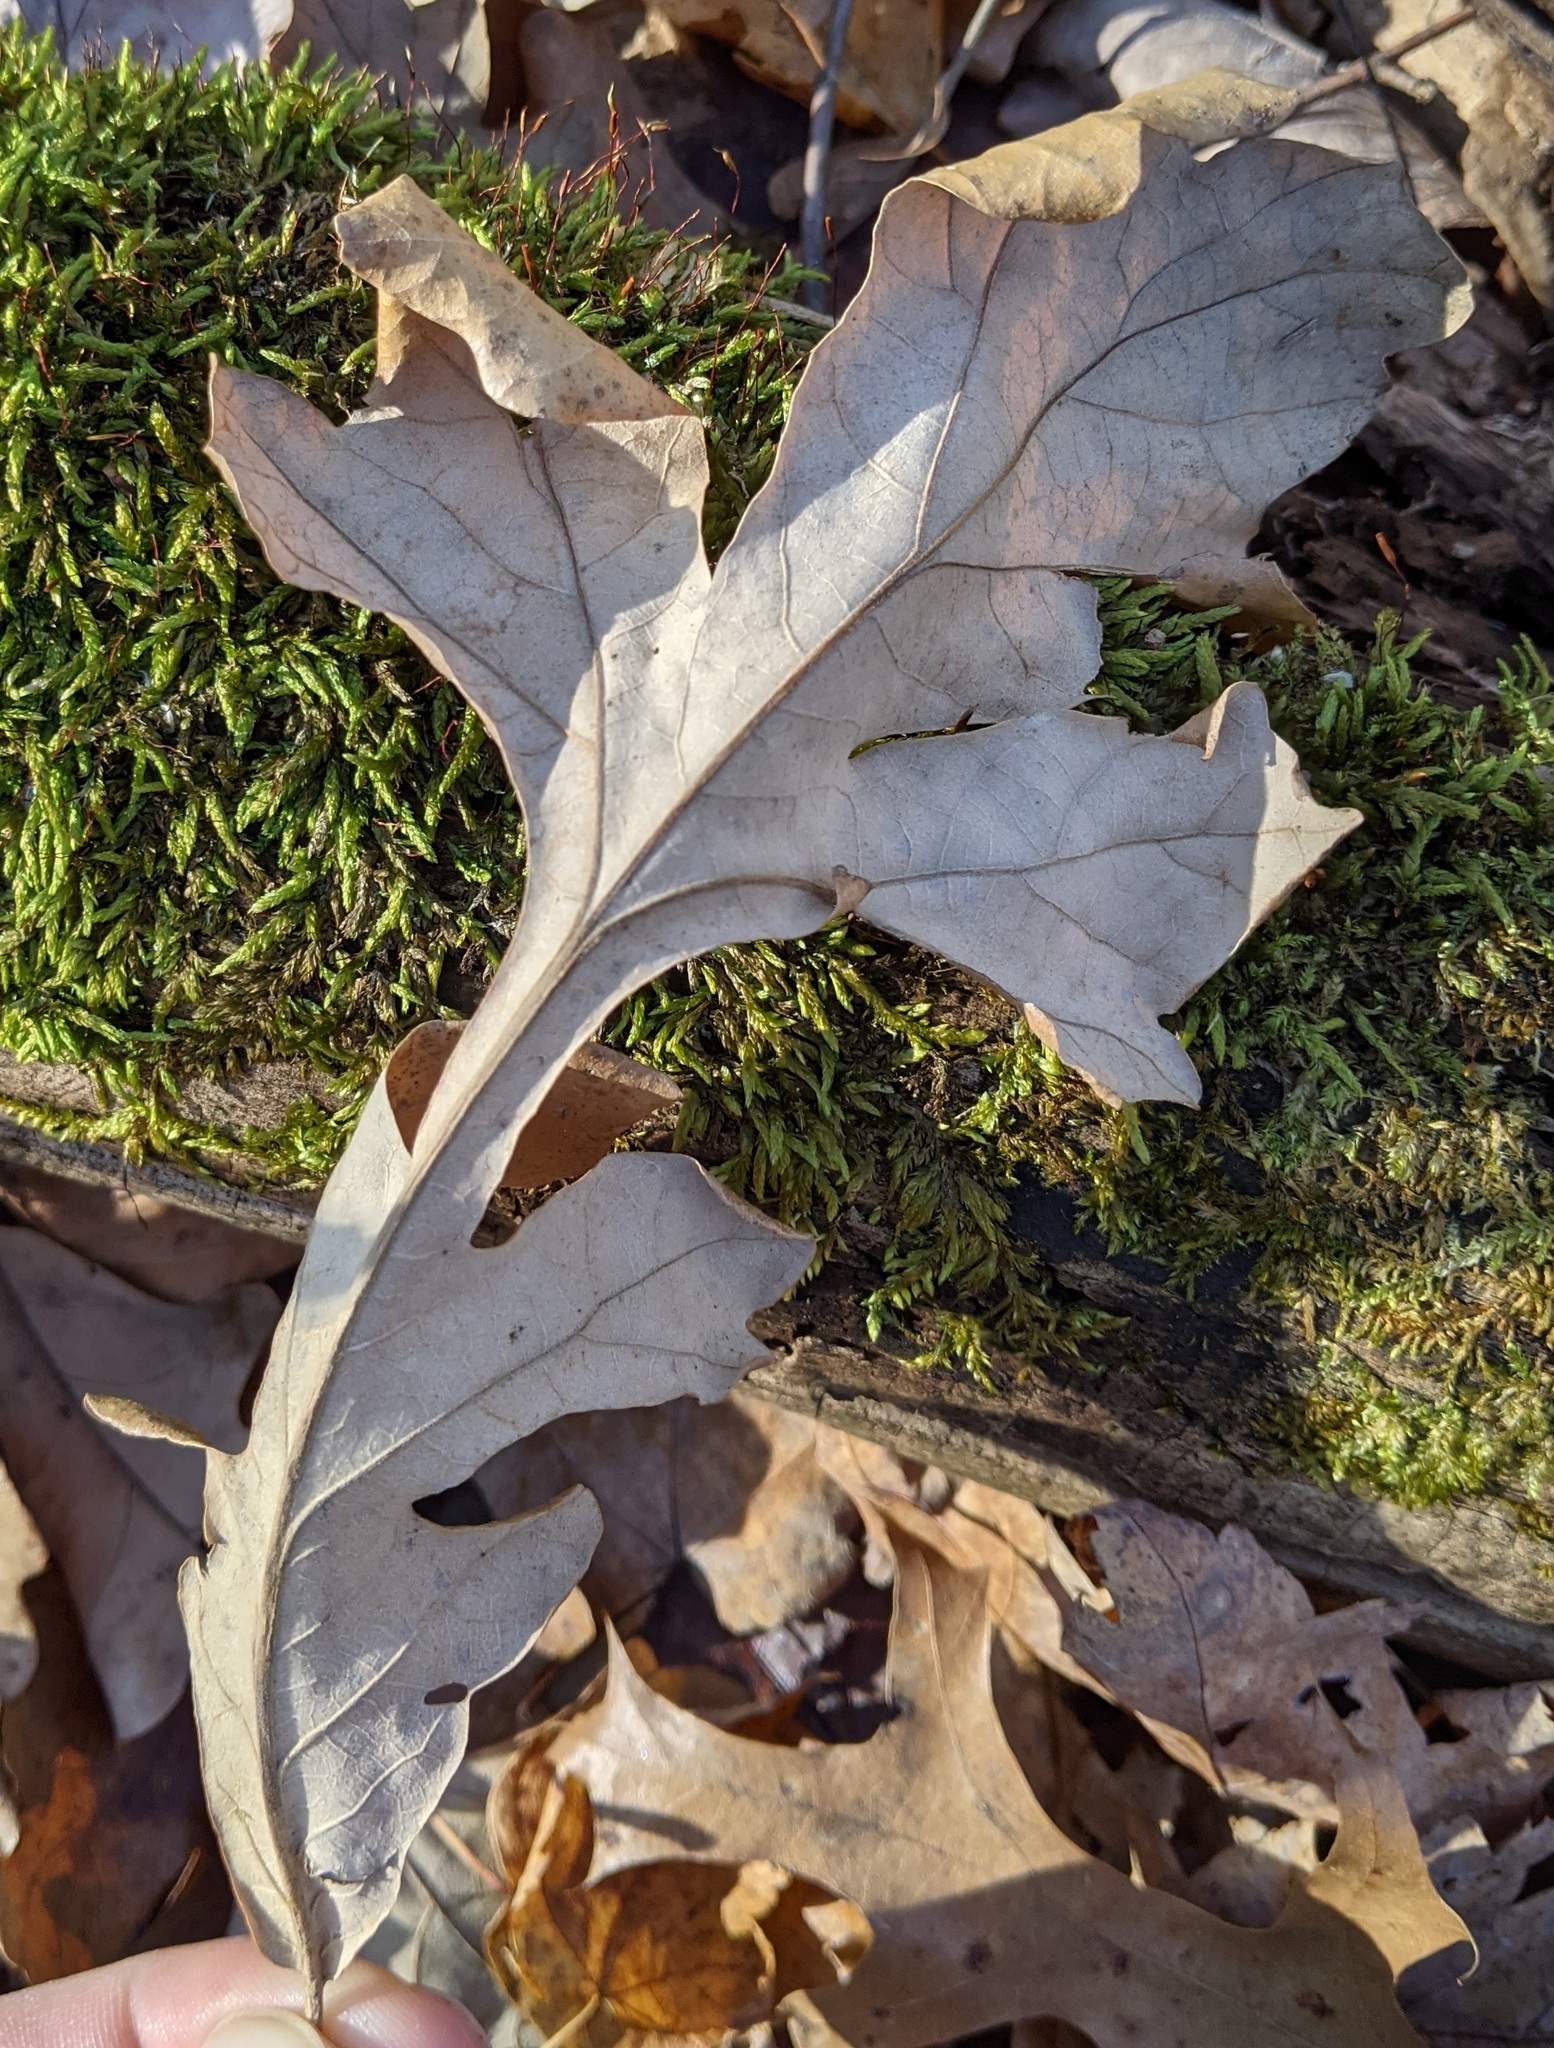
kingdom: Plantae
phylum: Tracheophyta
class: Magnoliopsida
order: Fagales
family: Fagaceae
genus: Quercus
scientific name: Quercus macrocarpa
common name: Bur oak
